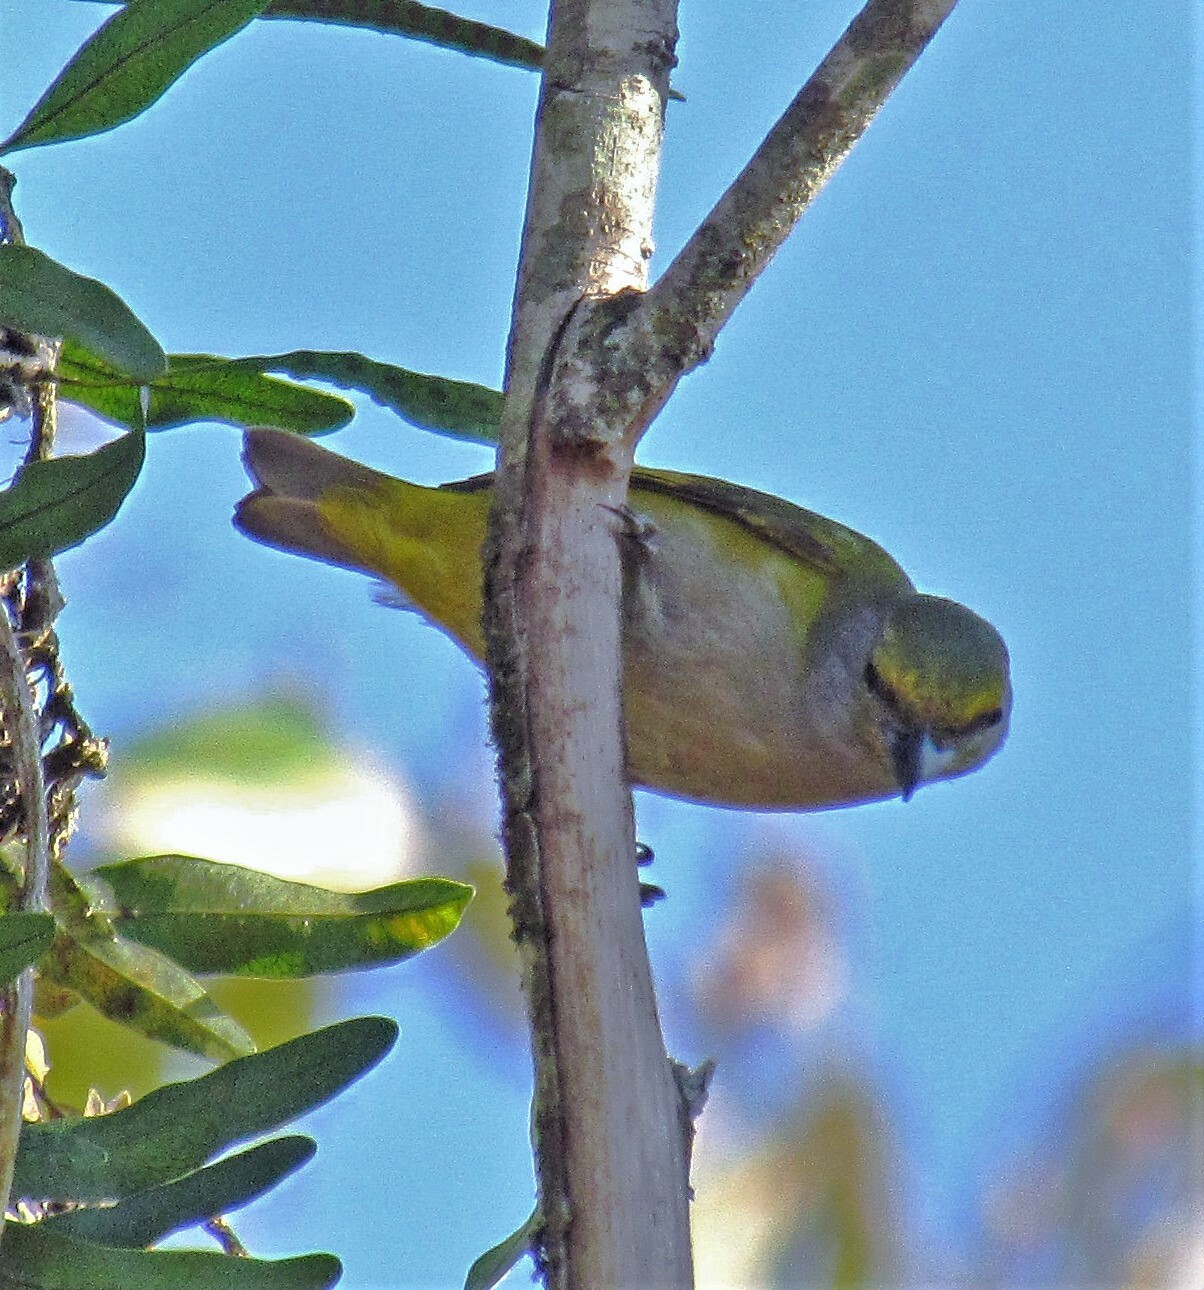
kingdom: Animalia
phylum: Chordata
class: Aves
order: Passeriformes
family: Fringillidae
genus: Euphonia
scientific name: Euphonia chalybea
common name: Green-chinned euphonia
